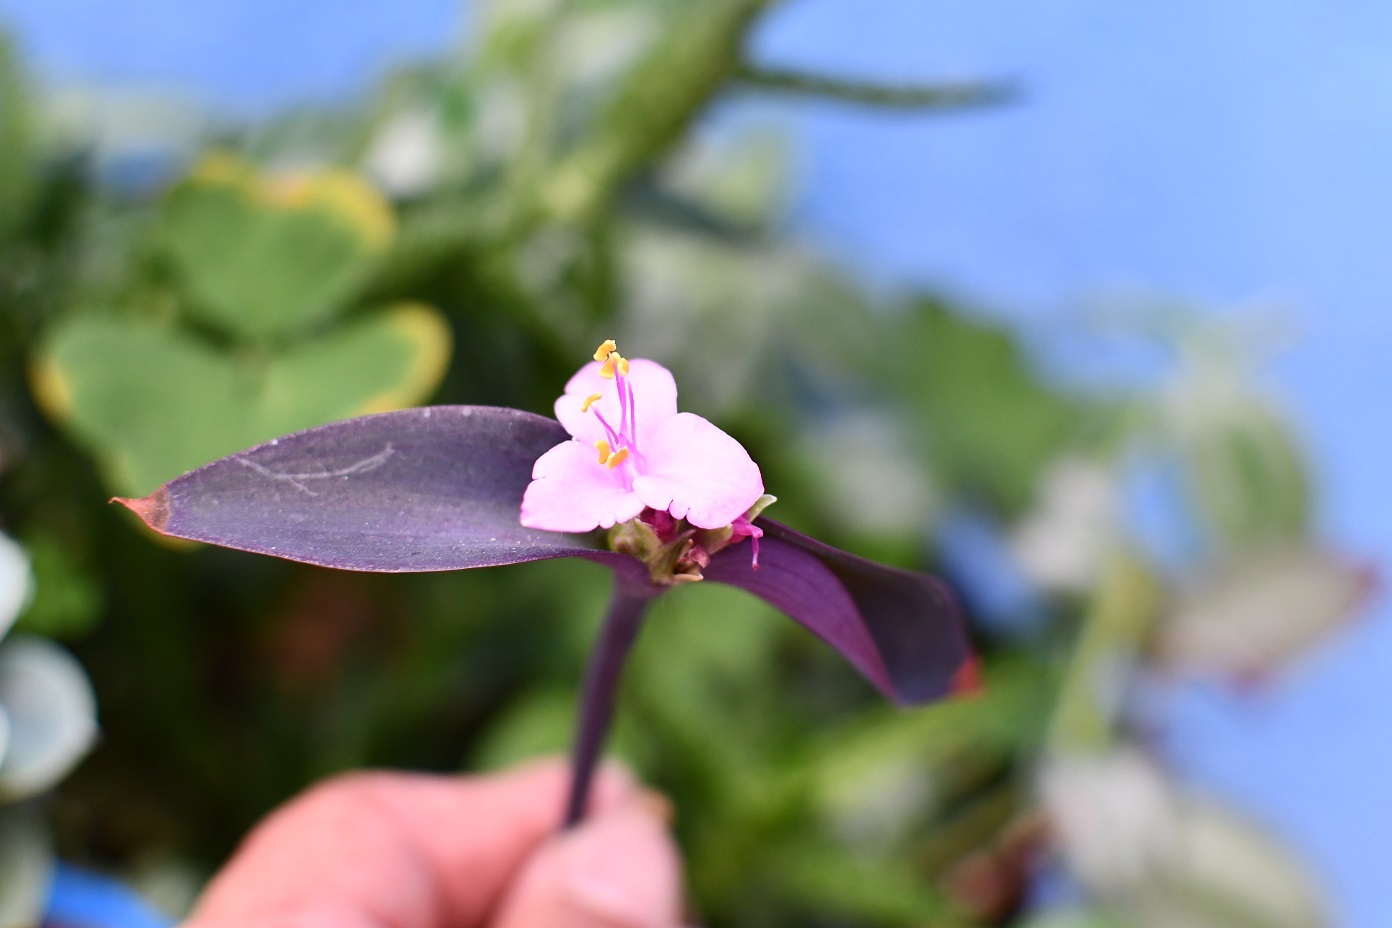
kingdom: Plantae
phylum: Tracheophyta
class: Liliopsida
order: Commelinales
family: Commelinaceae
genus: Tradescantia
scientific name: Tradescantia pallida
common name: Purpleheart
